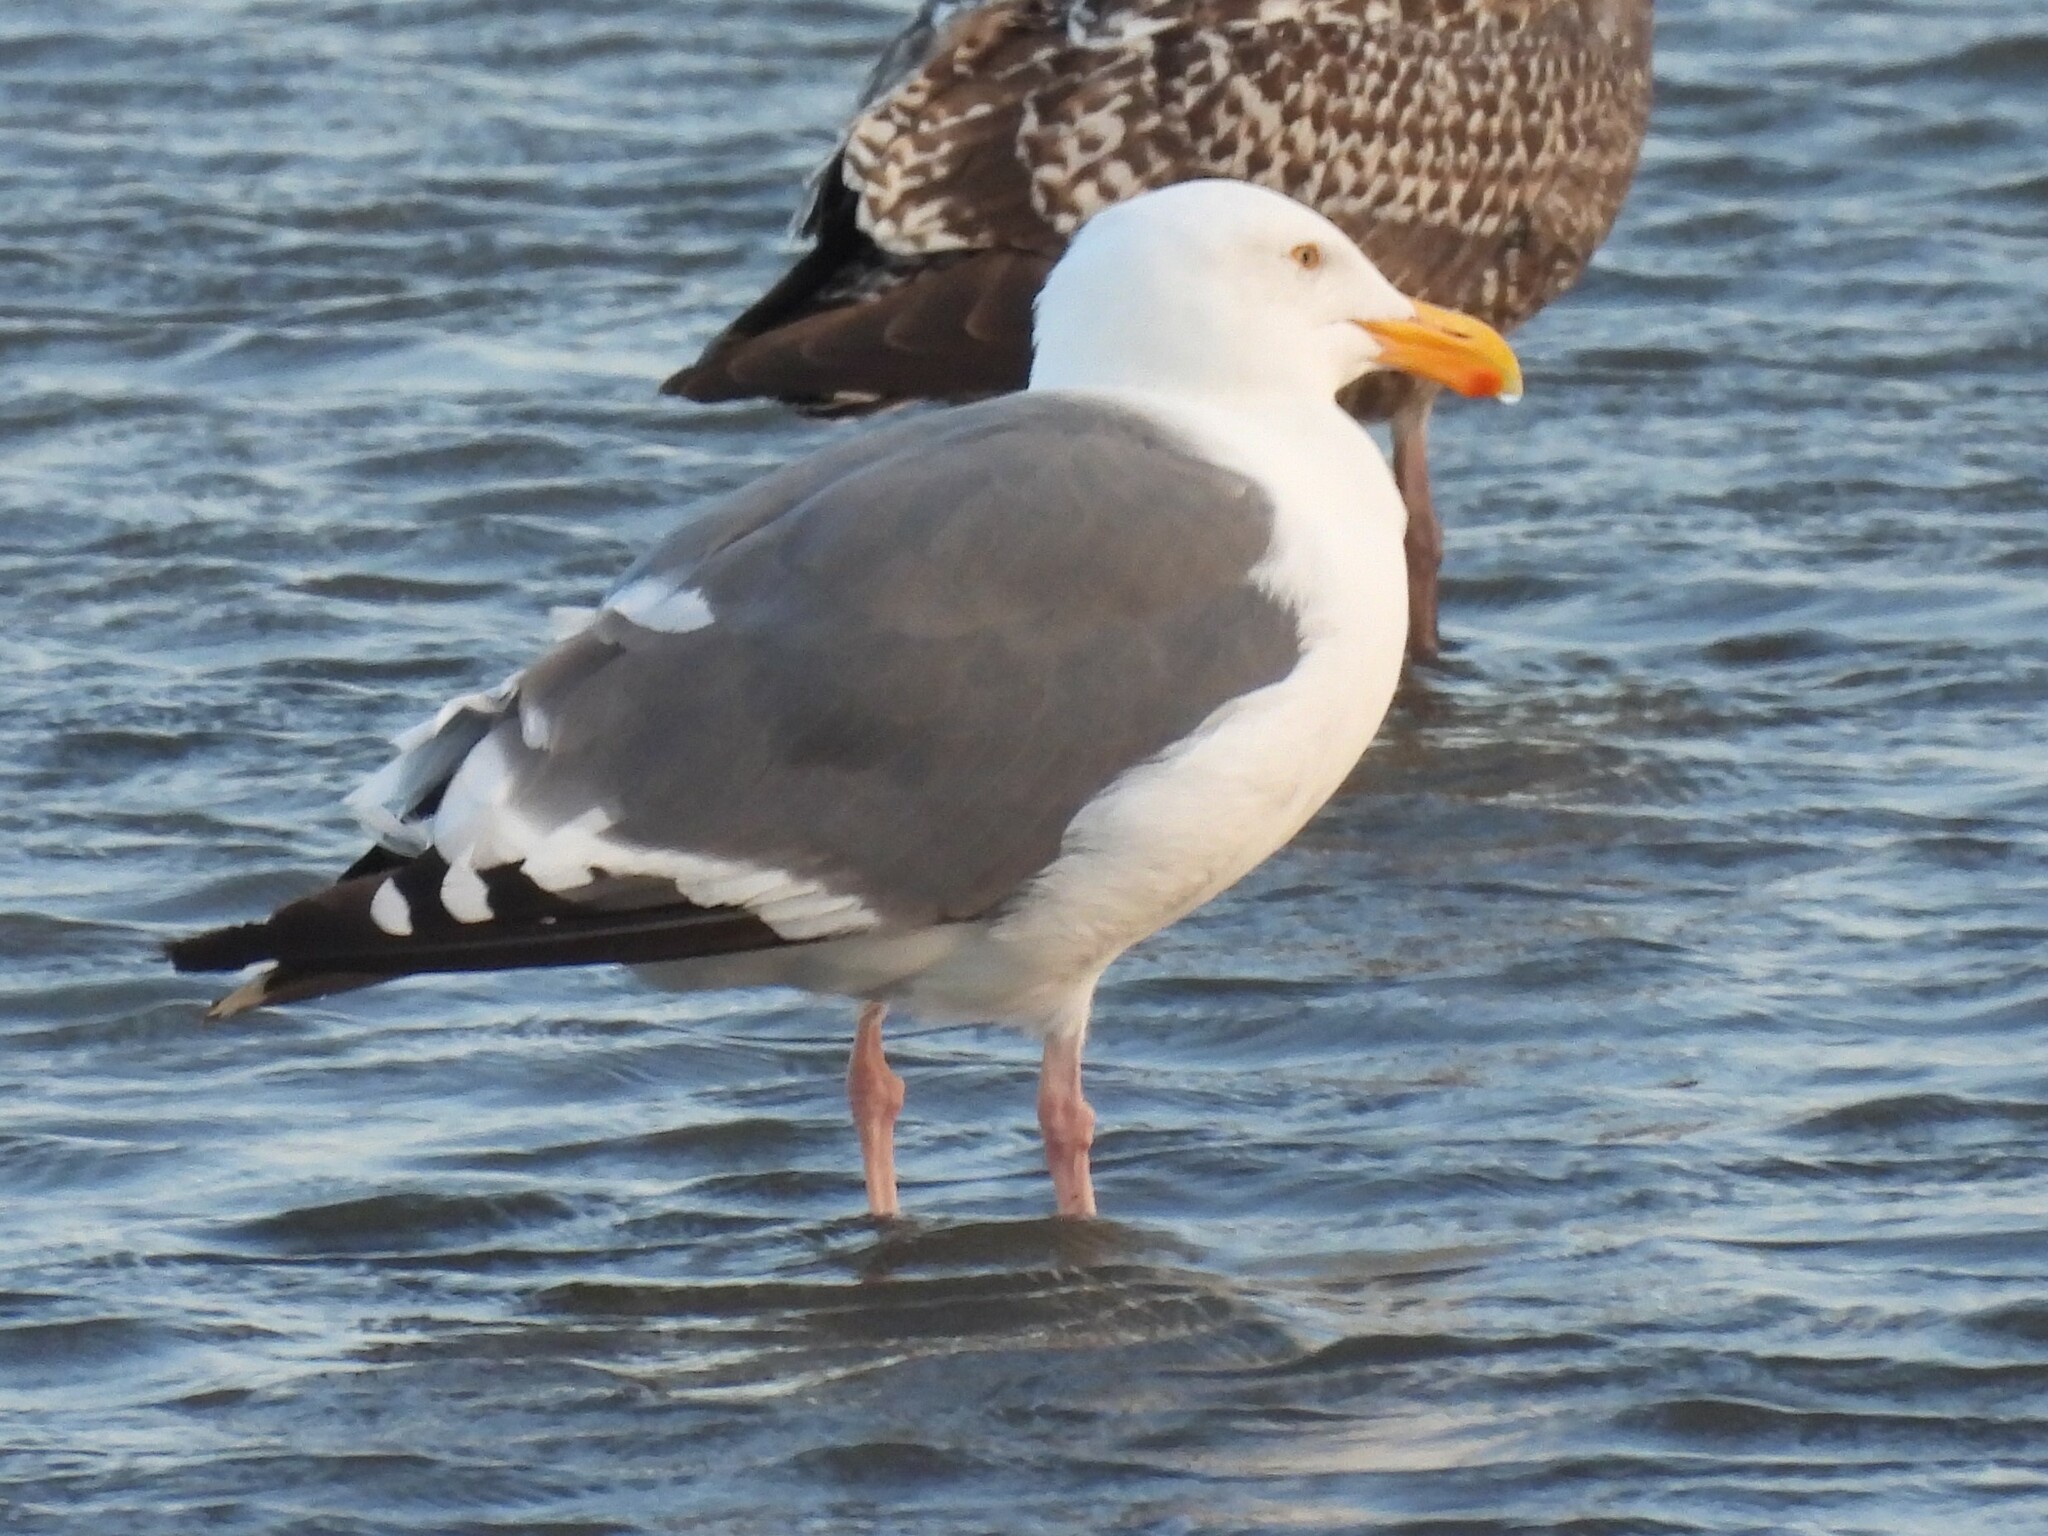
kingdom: Animalia
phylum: Chordata
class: Aves
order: Charadriiformes
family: Laridae
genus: Larus
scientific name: Larus occidentalis
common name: Western gull
